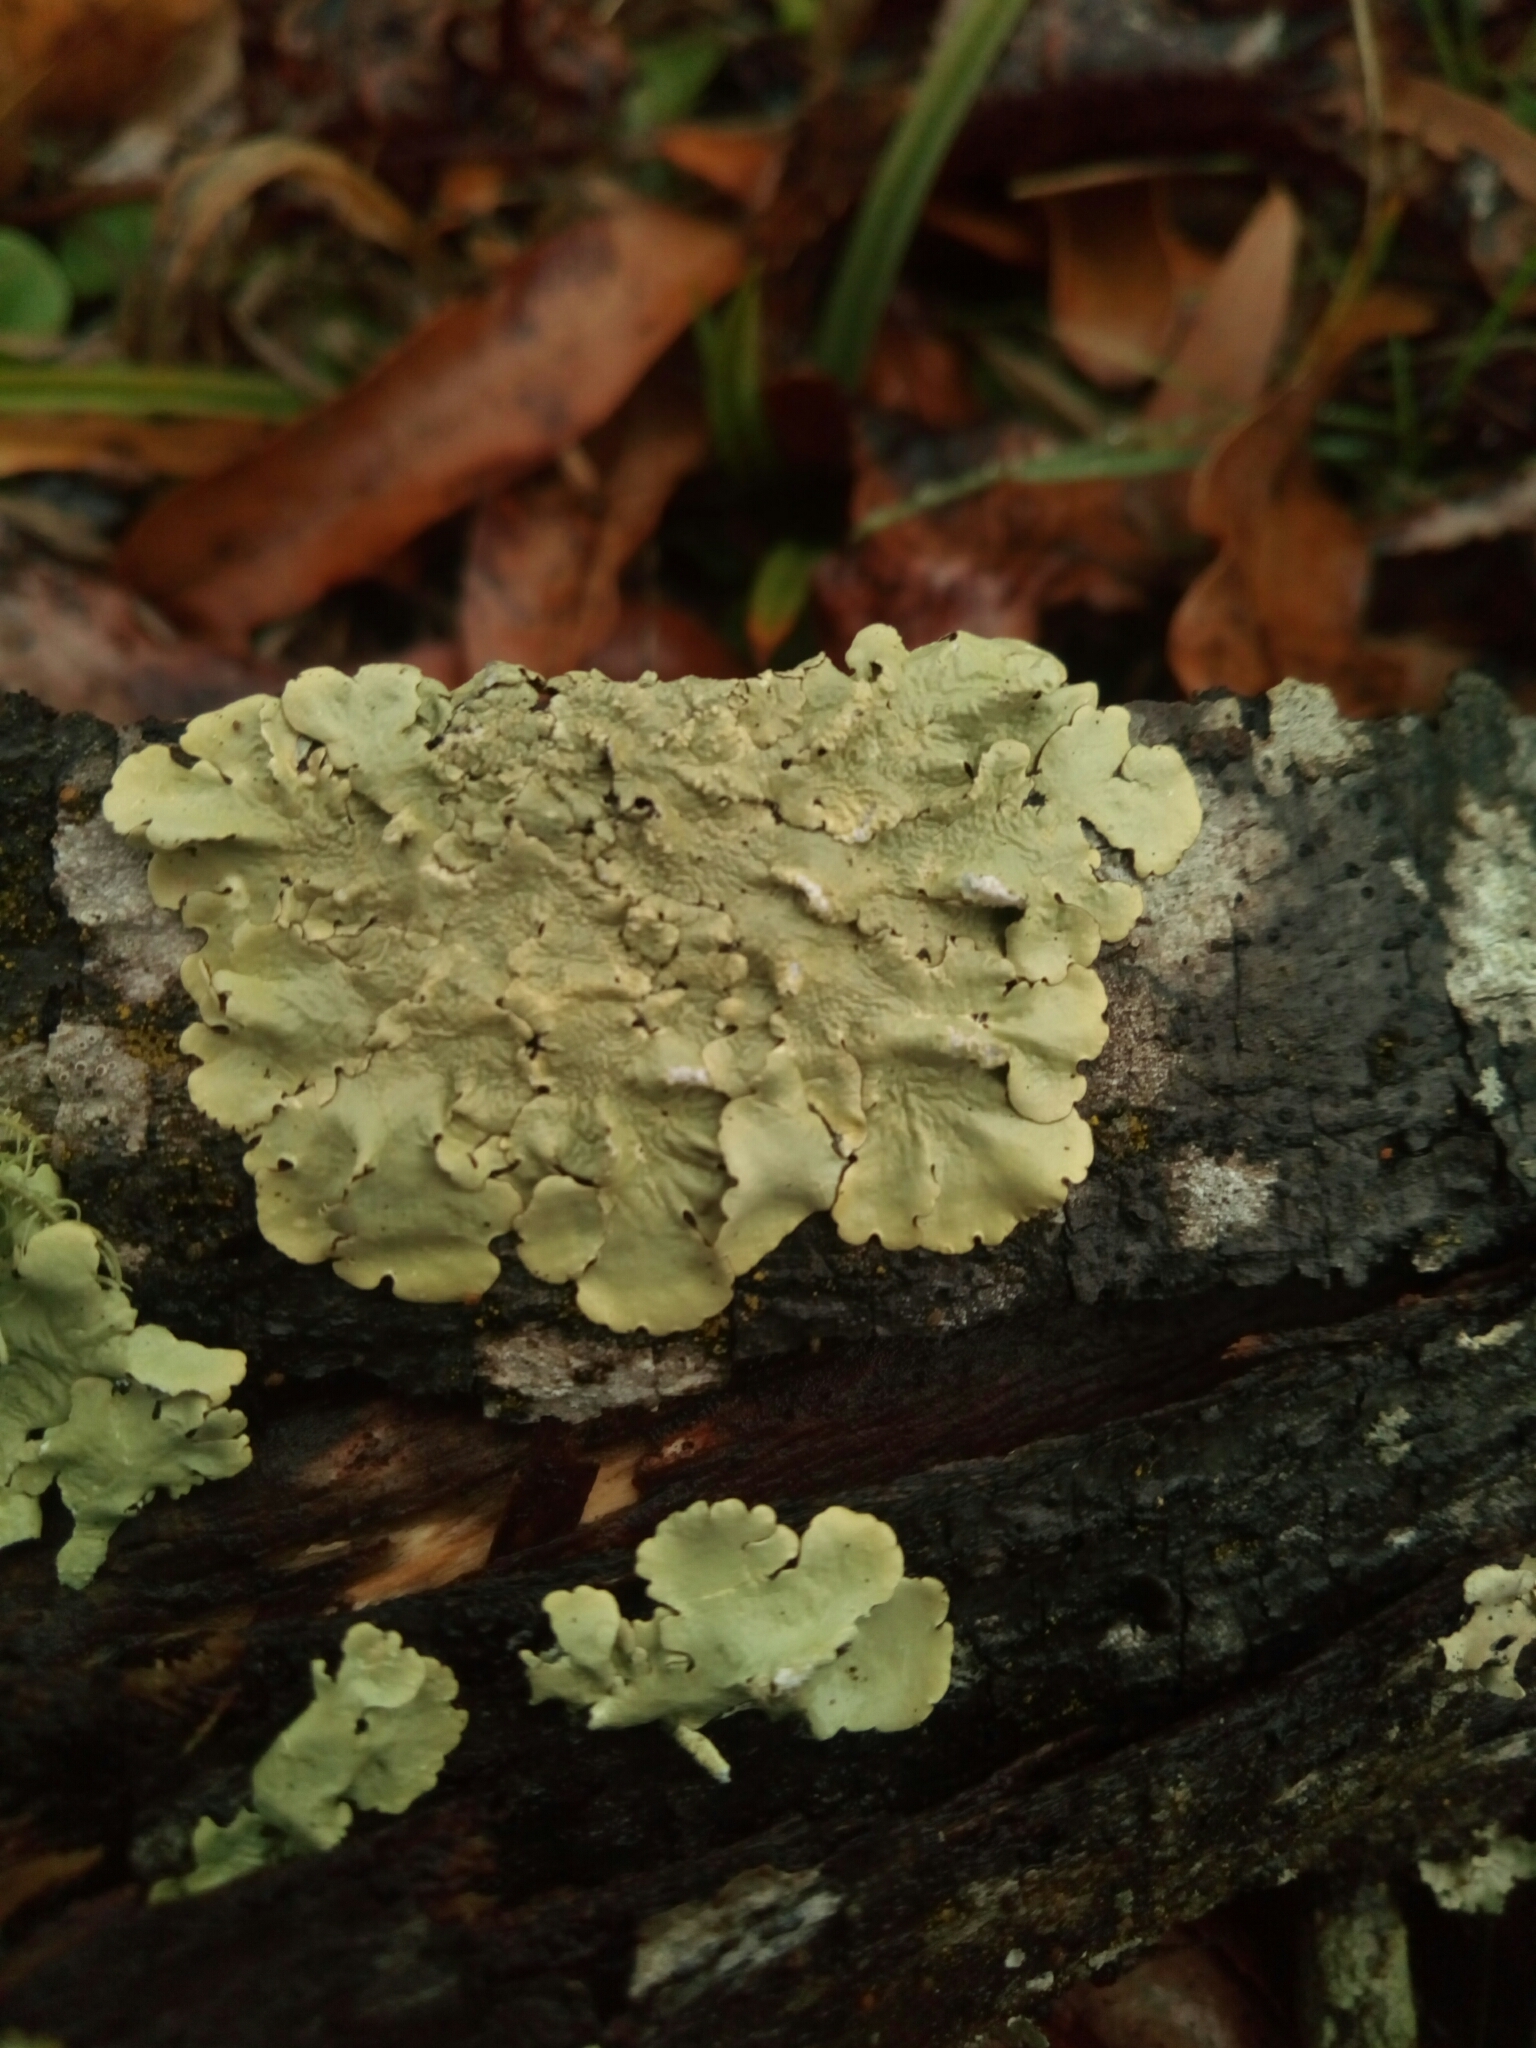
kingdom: Fungi
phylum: Ascomycota
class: Lecanoromycetes
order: Lecanorales
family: Parmeliaceae
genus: Flavoparmelia
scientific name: Flavoparmelia caperata
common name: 40-mile per hour lichen
